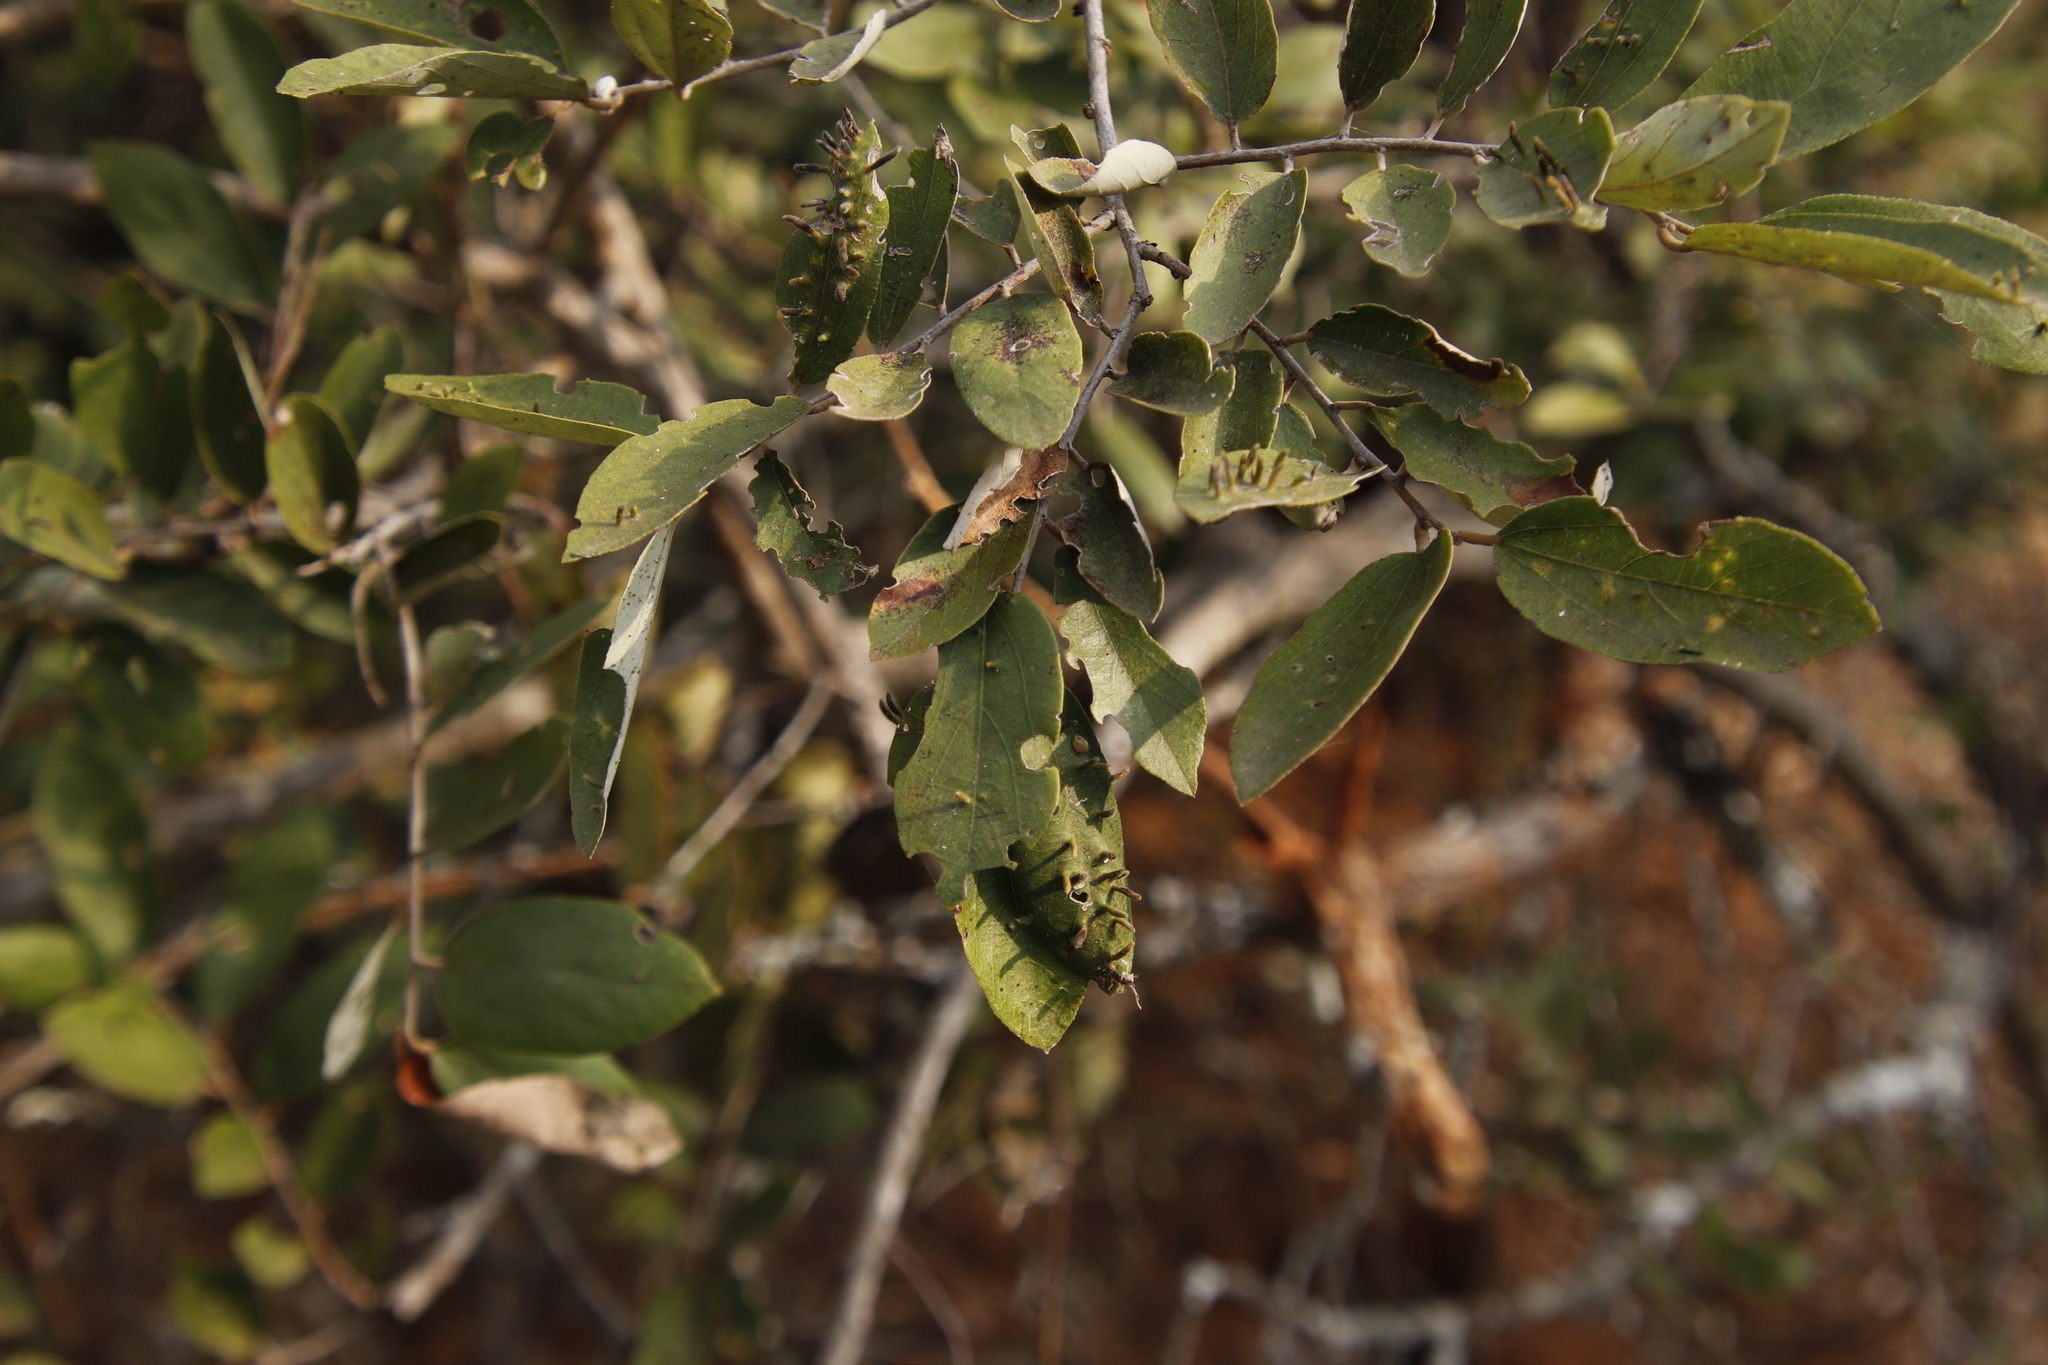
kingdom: Animalia
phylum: Arthropoda
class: Arachnida
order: Trombidiformes
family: Eriophyidae
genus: Aceria
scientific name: Aceria
